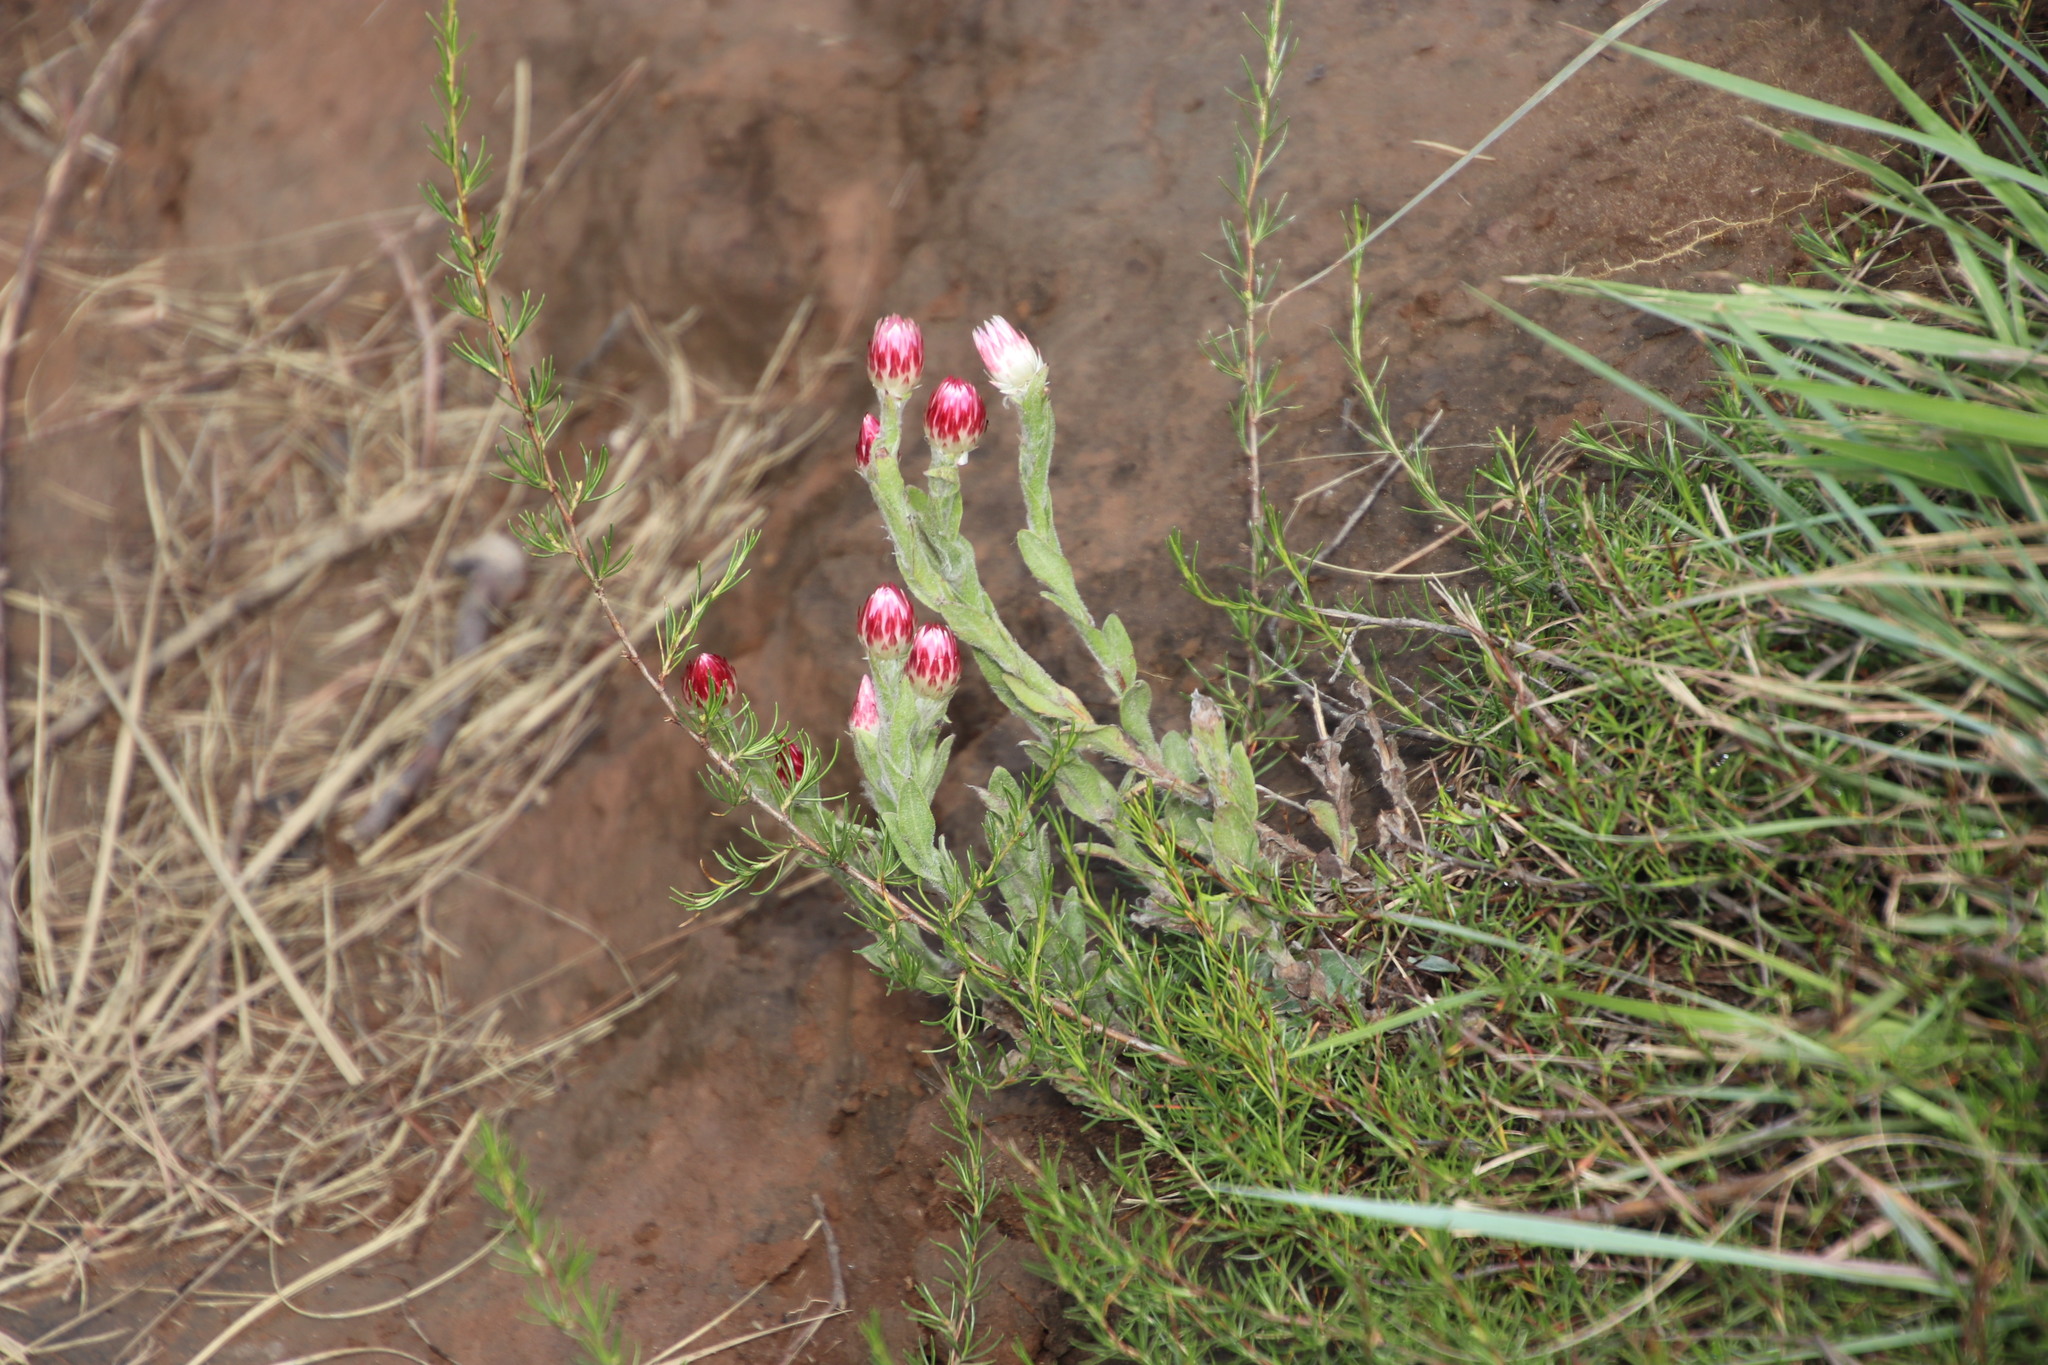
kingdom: Plantae
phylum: Tracheophyta
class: Magnoliopsida
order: Asterales
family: Asteraceae
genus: Helichrysum
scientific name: Helichrysum adenocarpum
